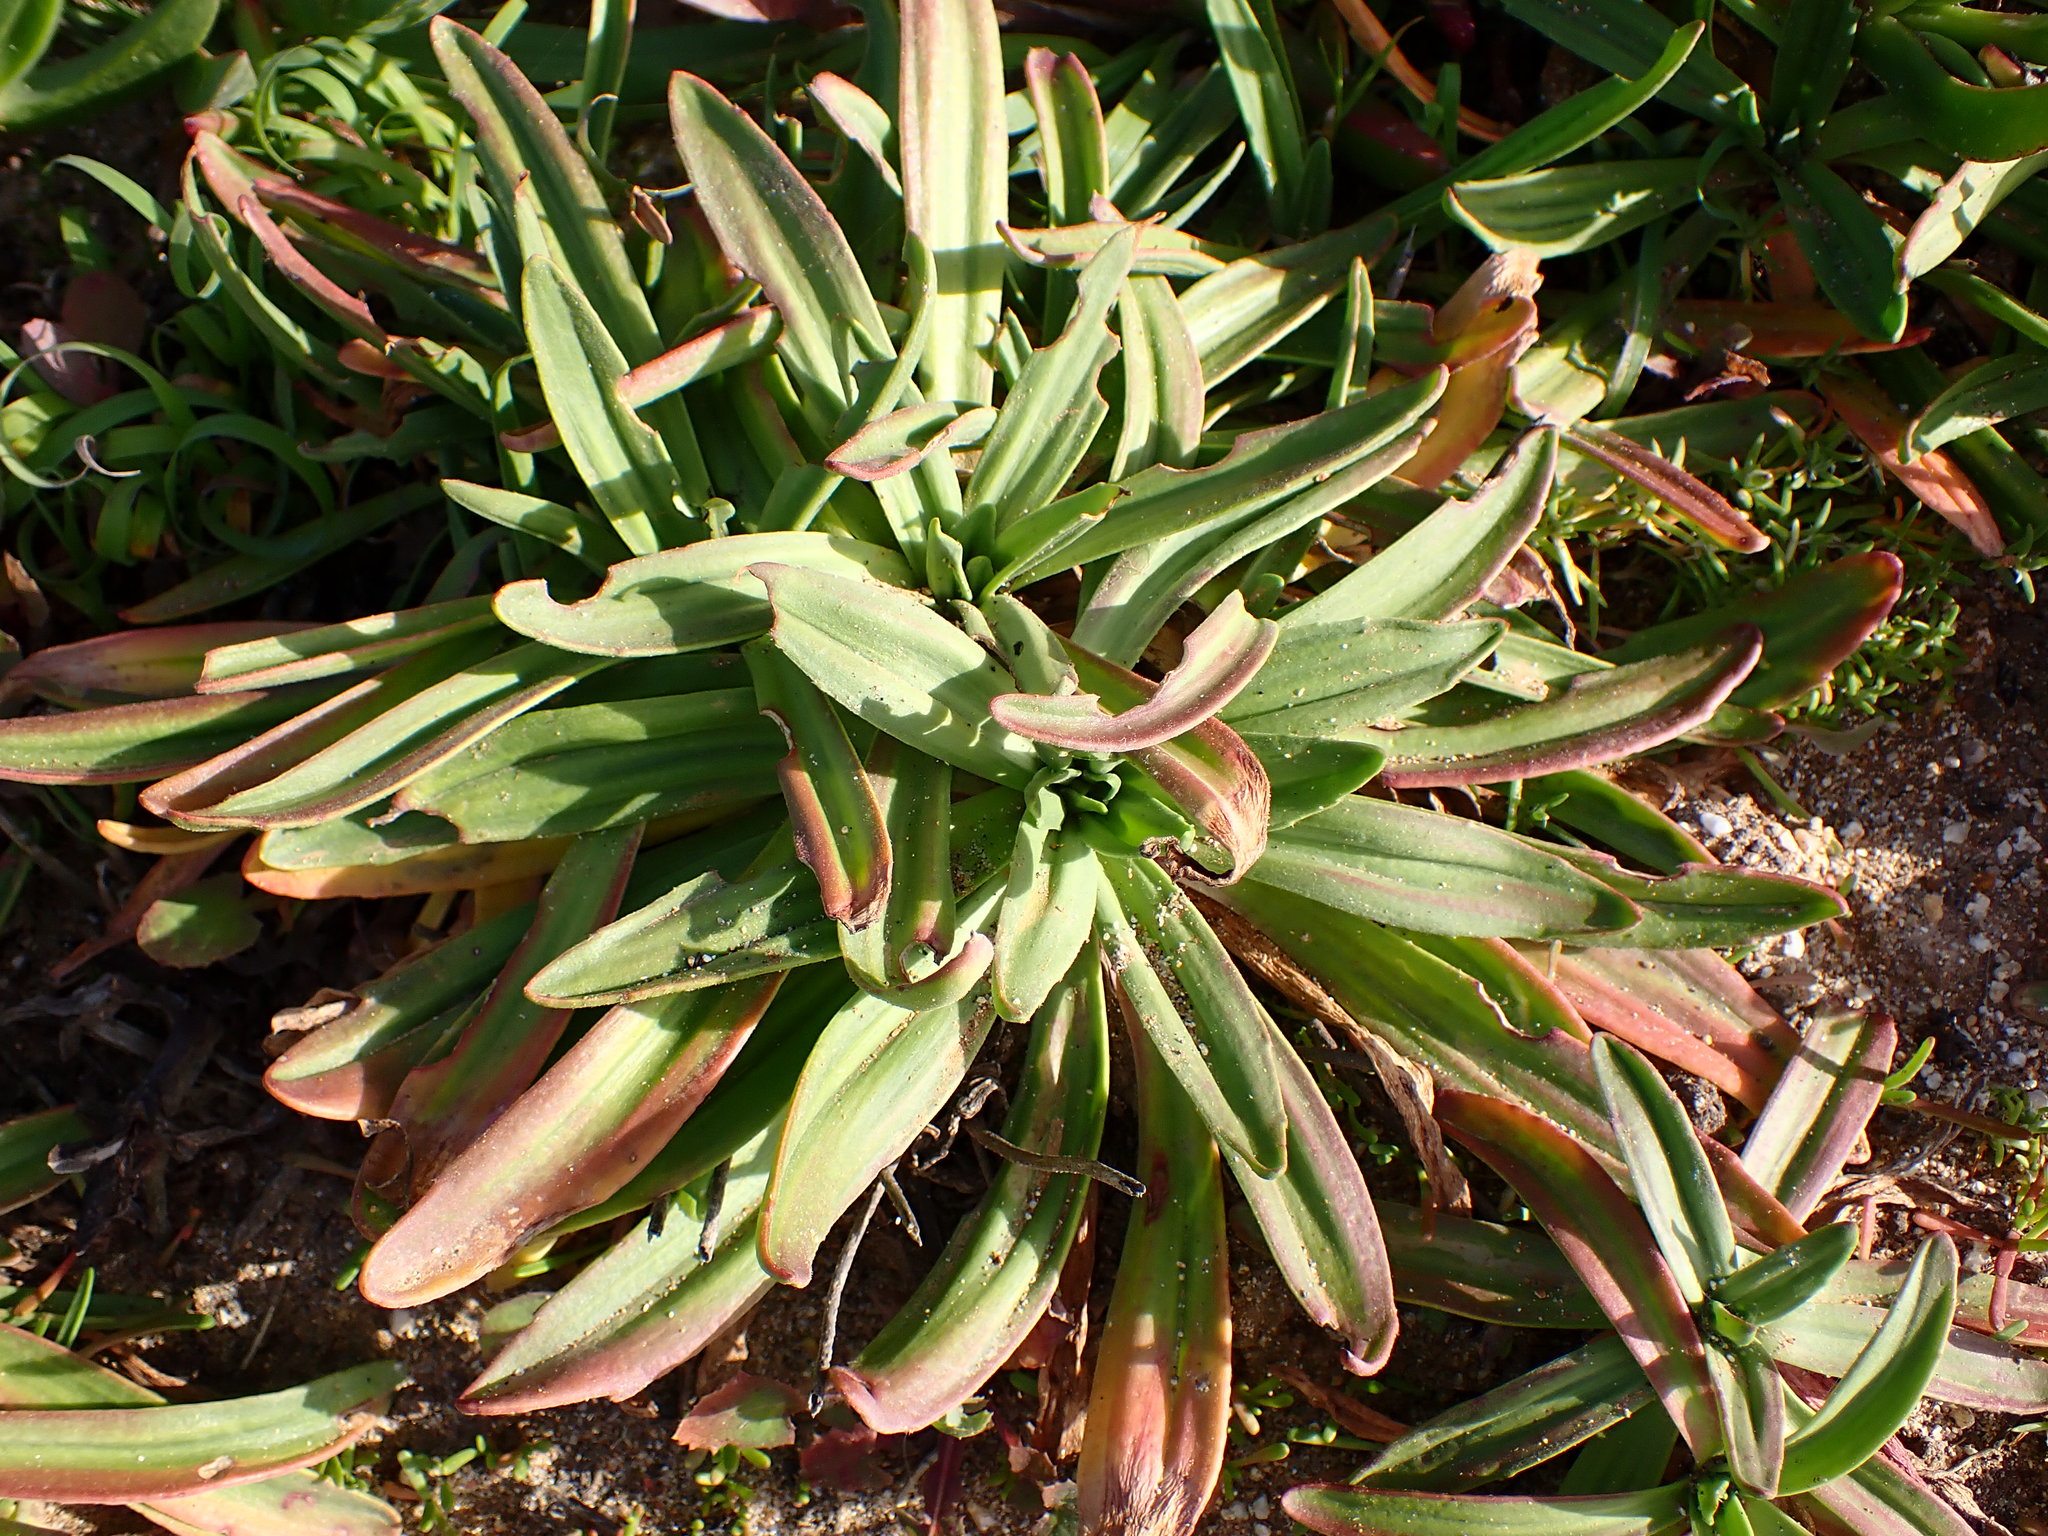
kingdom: Plantae
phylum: Tracheophyta
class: Magnoliopsida
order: Lamiales
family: Plantaginaceae
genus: Plantago
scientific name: Plantago maritima
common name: Sea plantain
